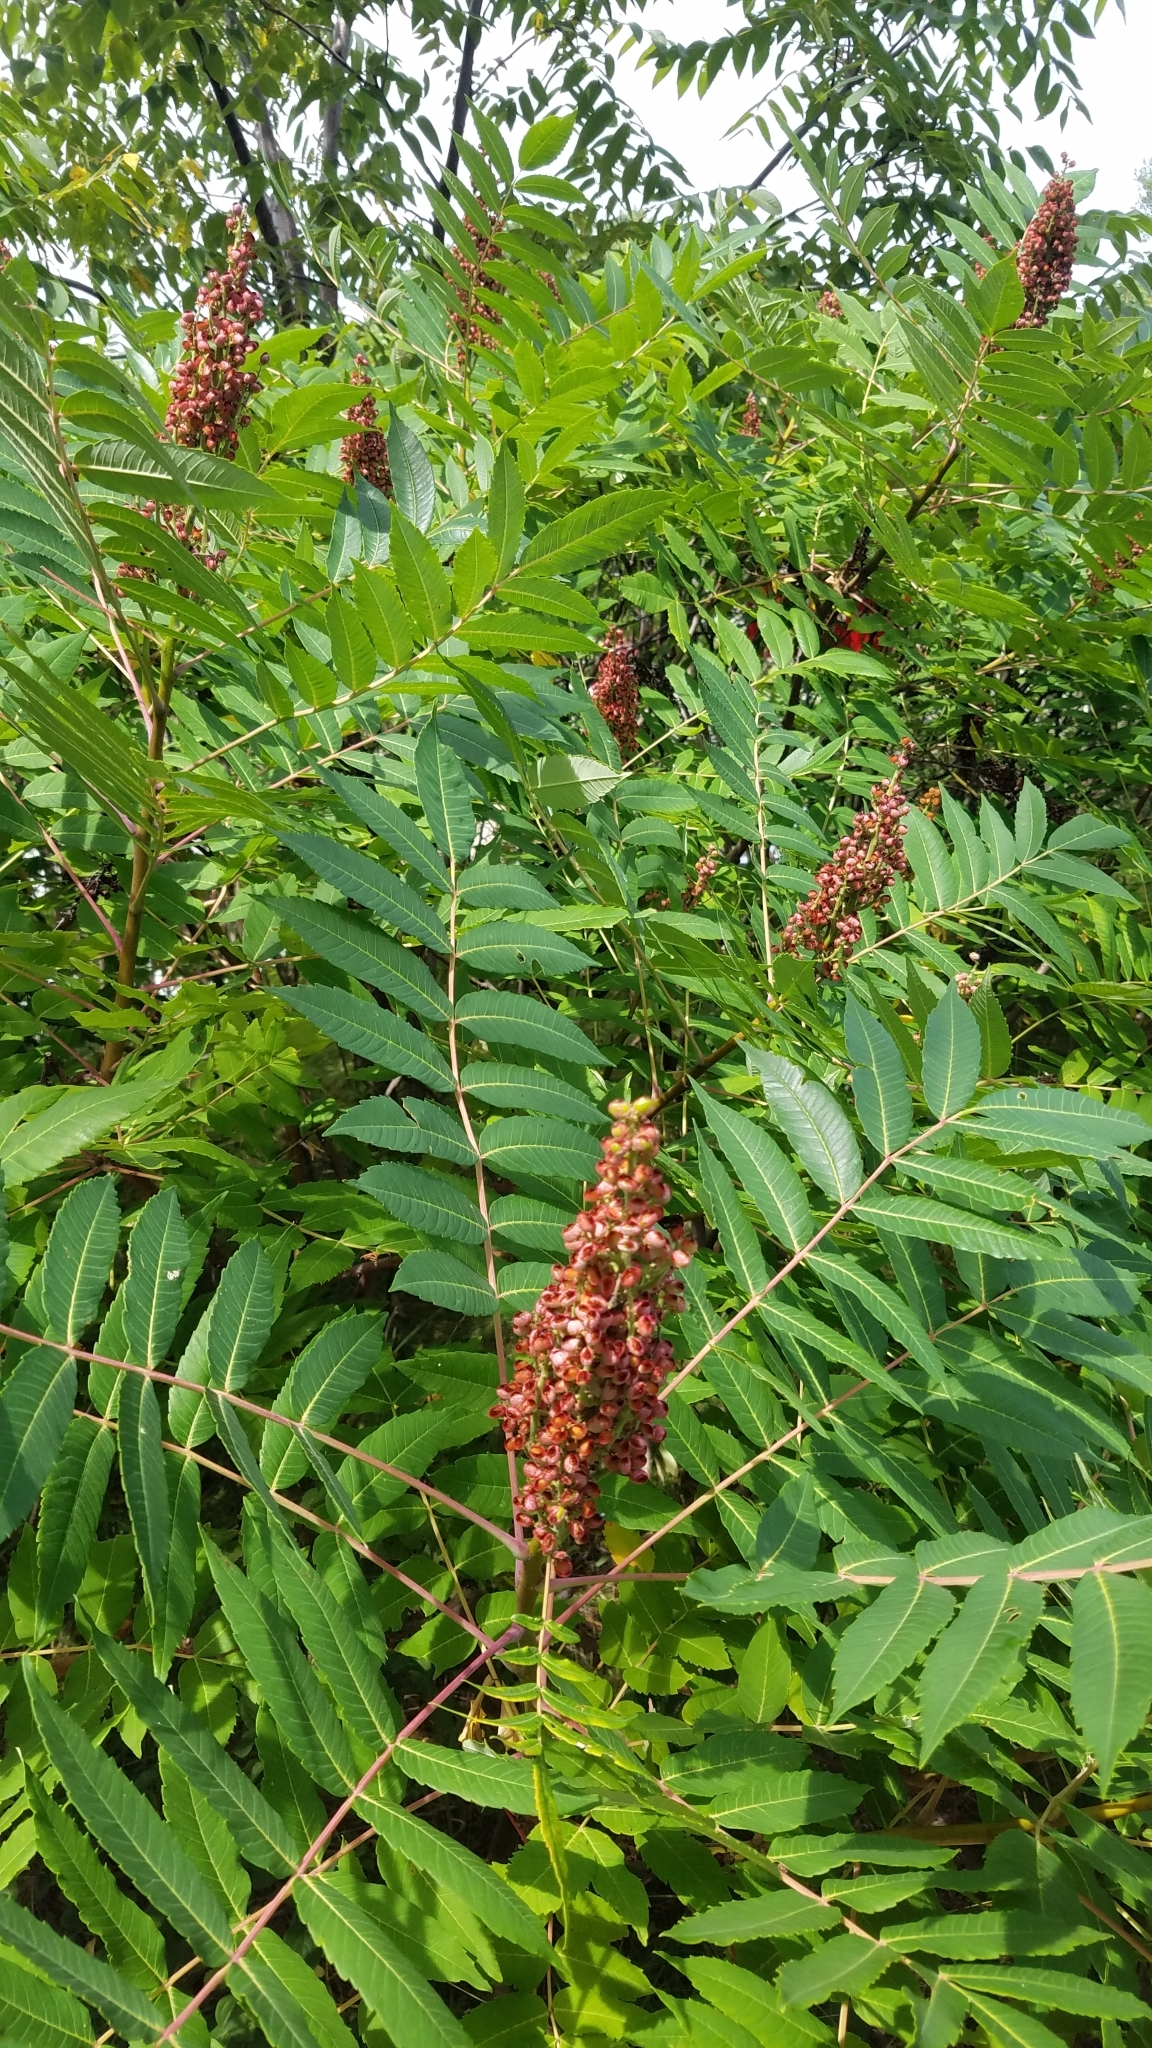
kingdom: Plantae
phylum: Tracheophyta
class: Magnoliopsida
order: Sapindales
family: Anacardiaceae
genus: Rhus
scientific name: Rhus glabra
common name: Scarlet sumac
